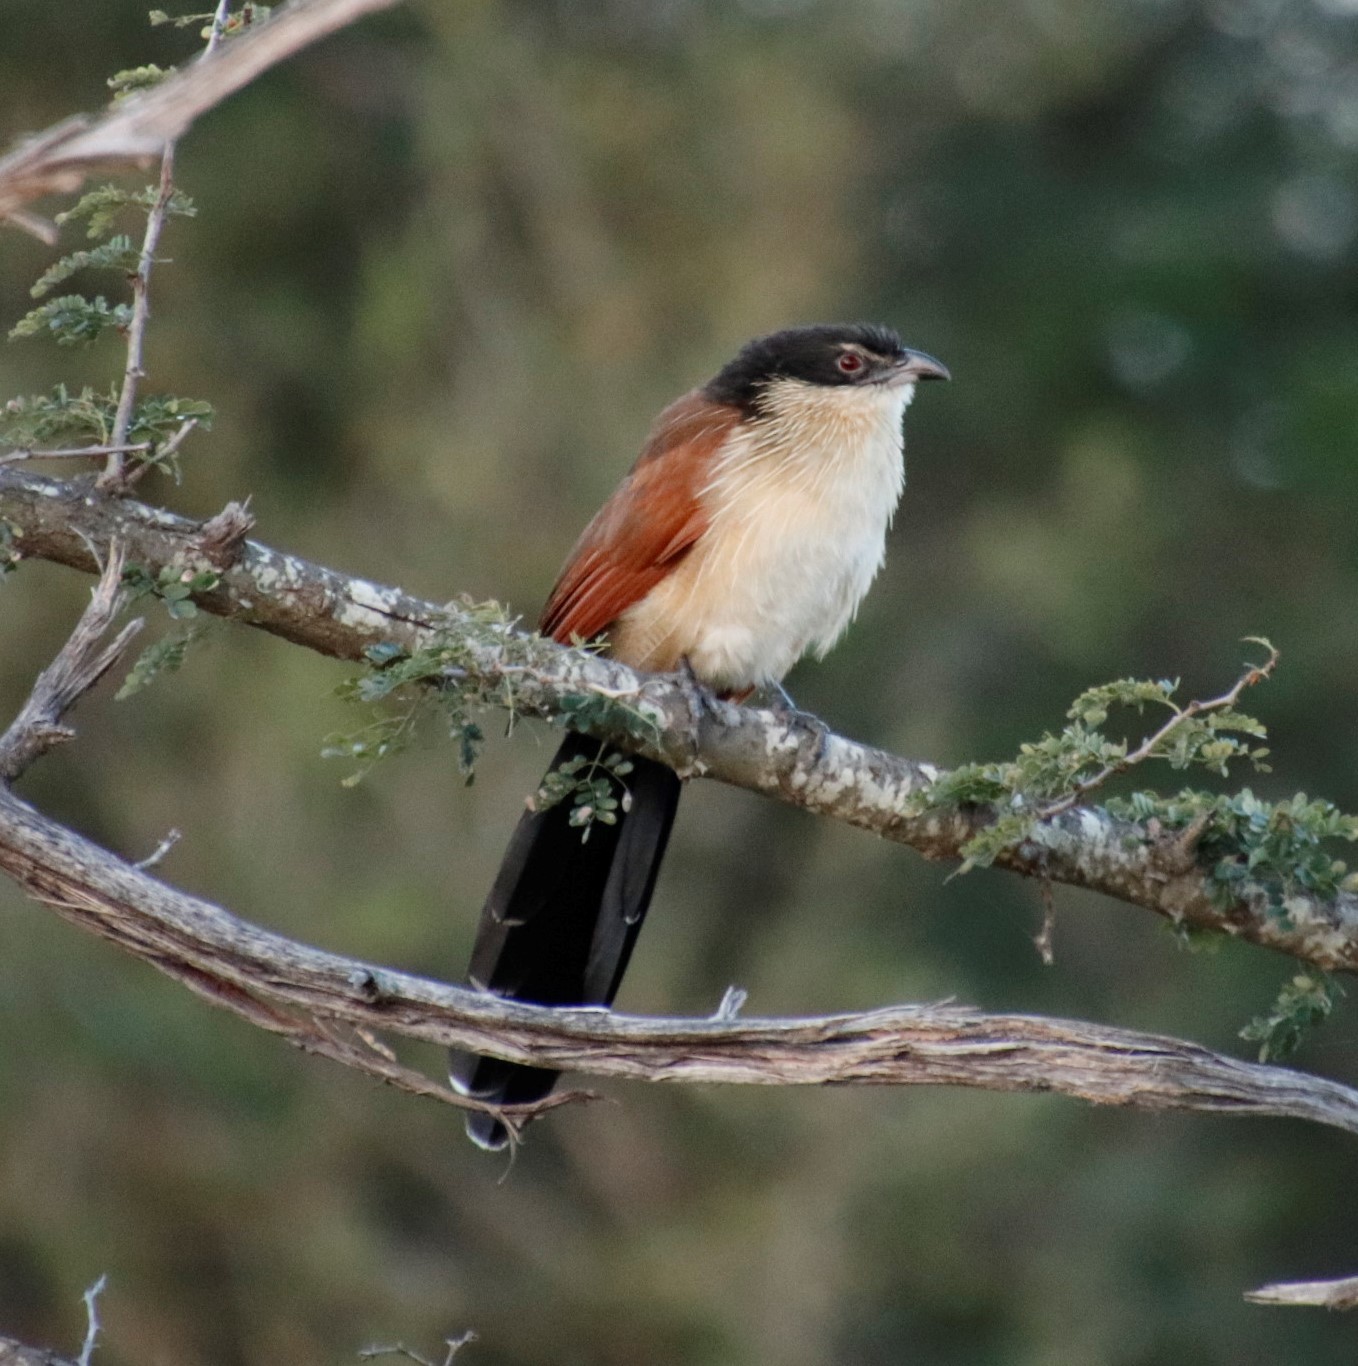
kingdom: Animalia
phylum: Chordata
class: Aves
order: Cuculiformes
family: Cuculidae
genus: Centropus
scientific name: Centropus superciliosus
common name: White-browed coucal
